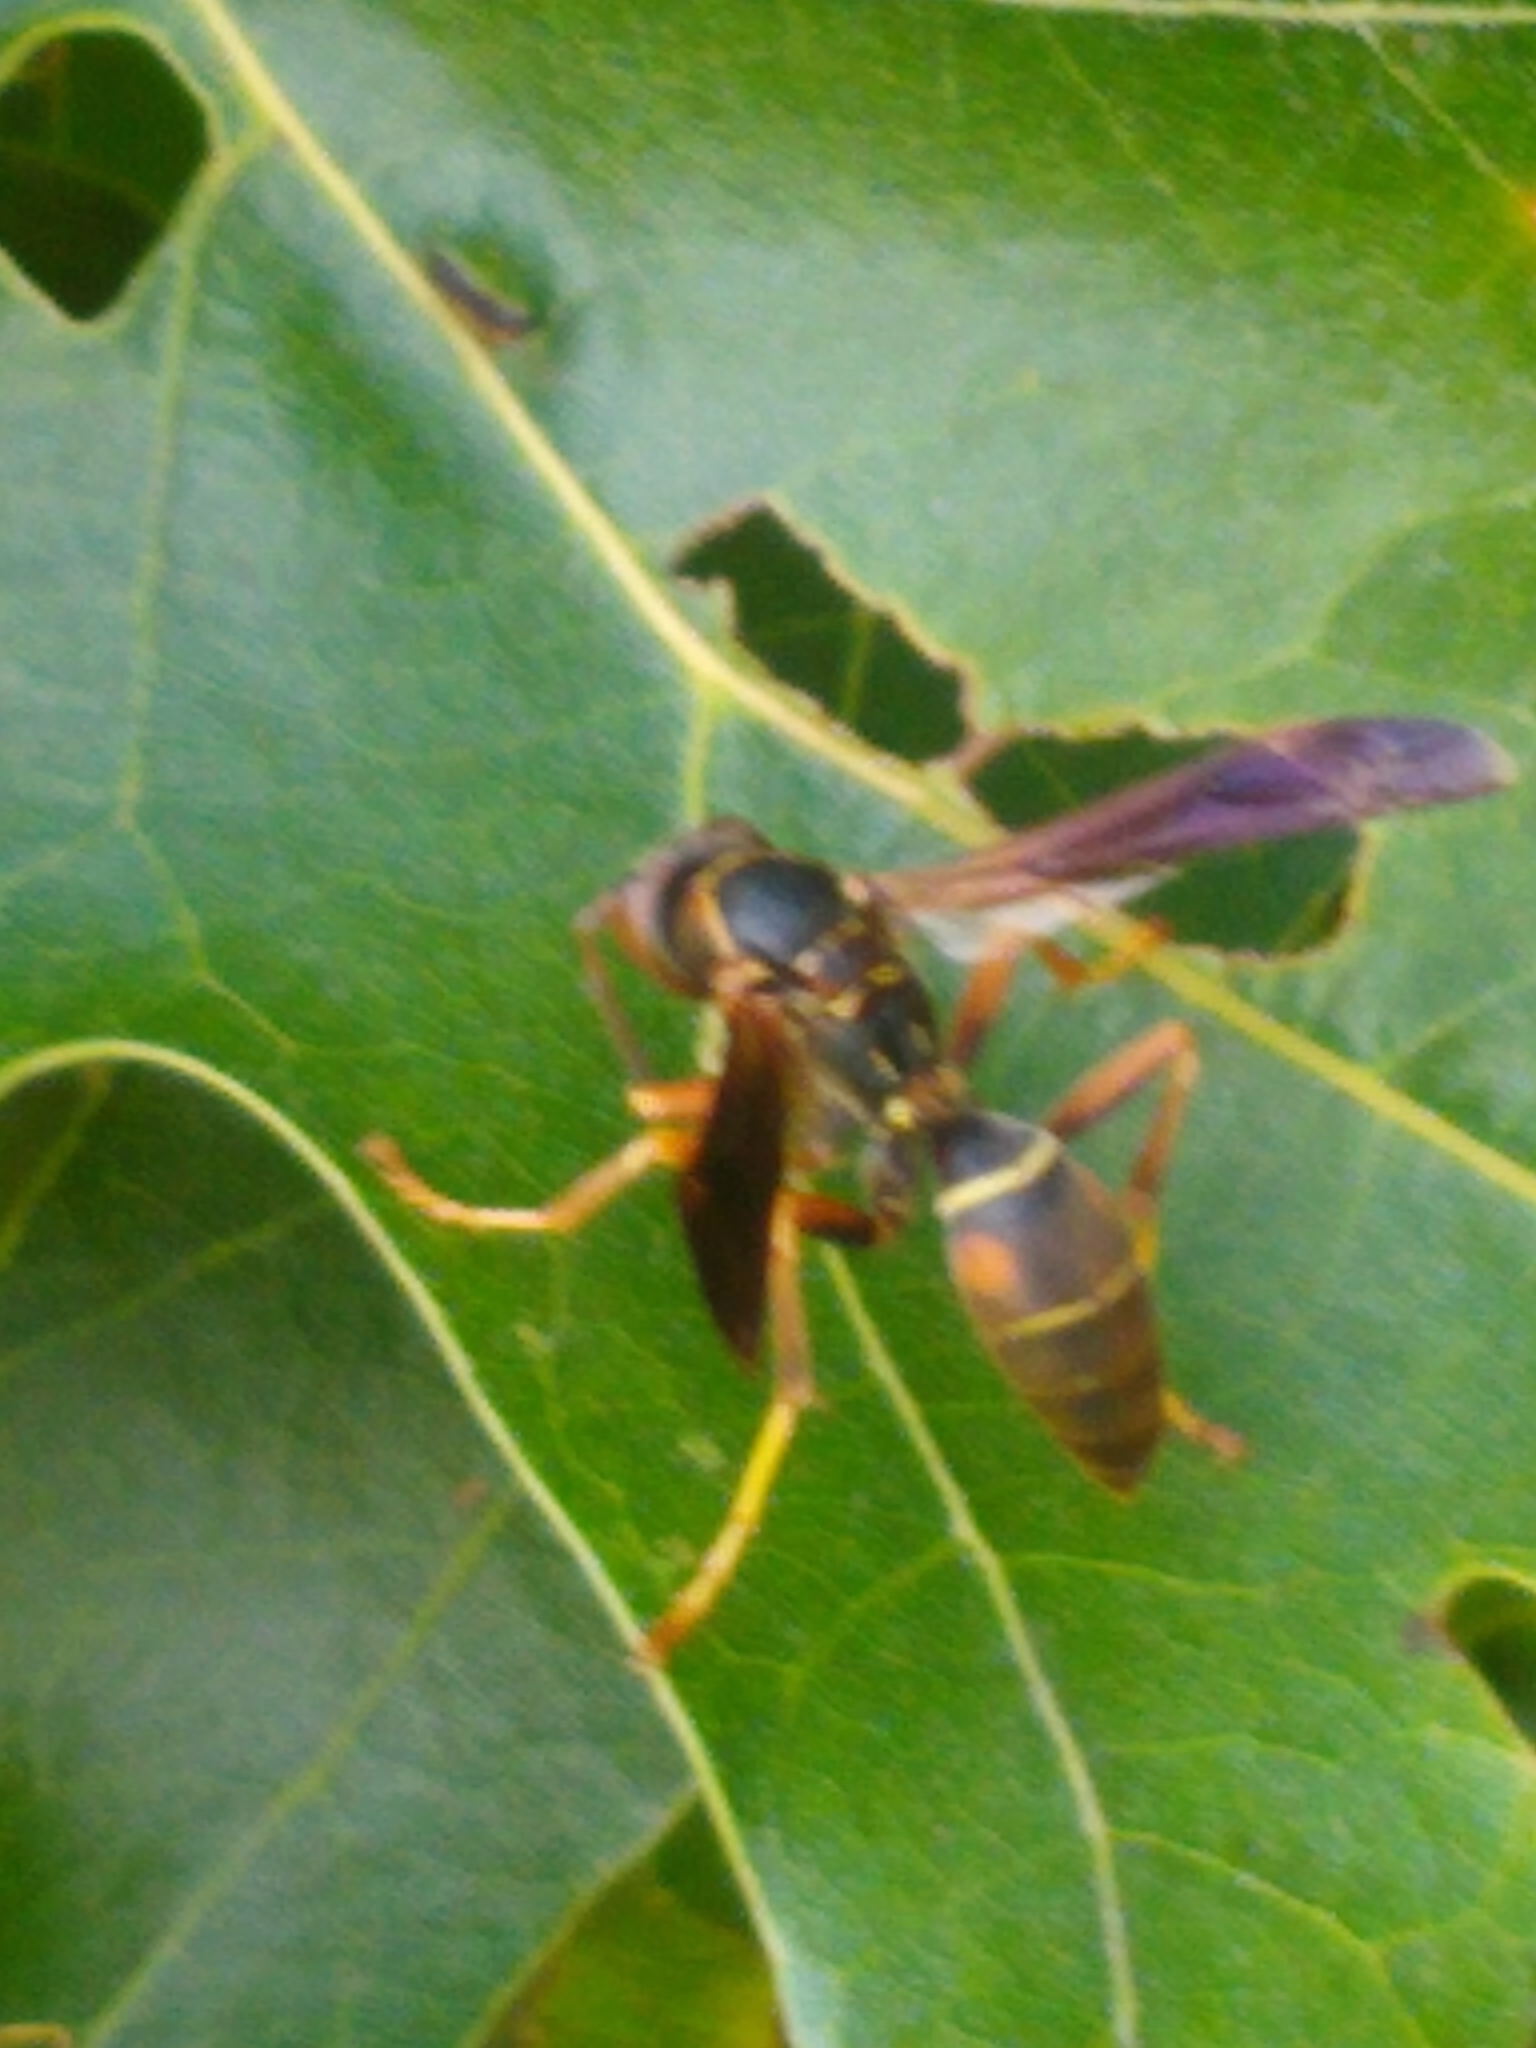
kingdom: Animalia
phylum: Arthropoda
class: Insecta
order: Hymenoptera
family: Eumenidae
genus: Polistes
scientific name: Polistes fuscatus
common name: Dark paper wasp
